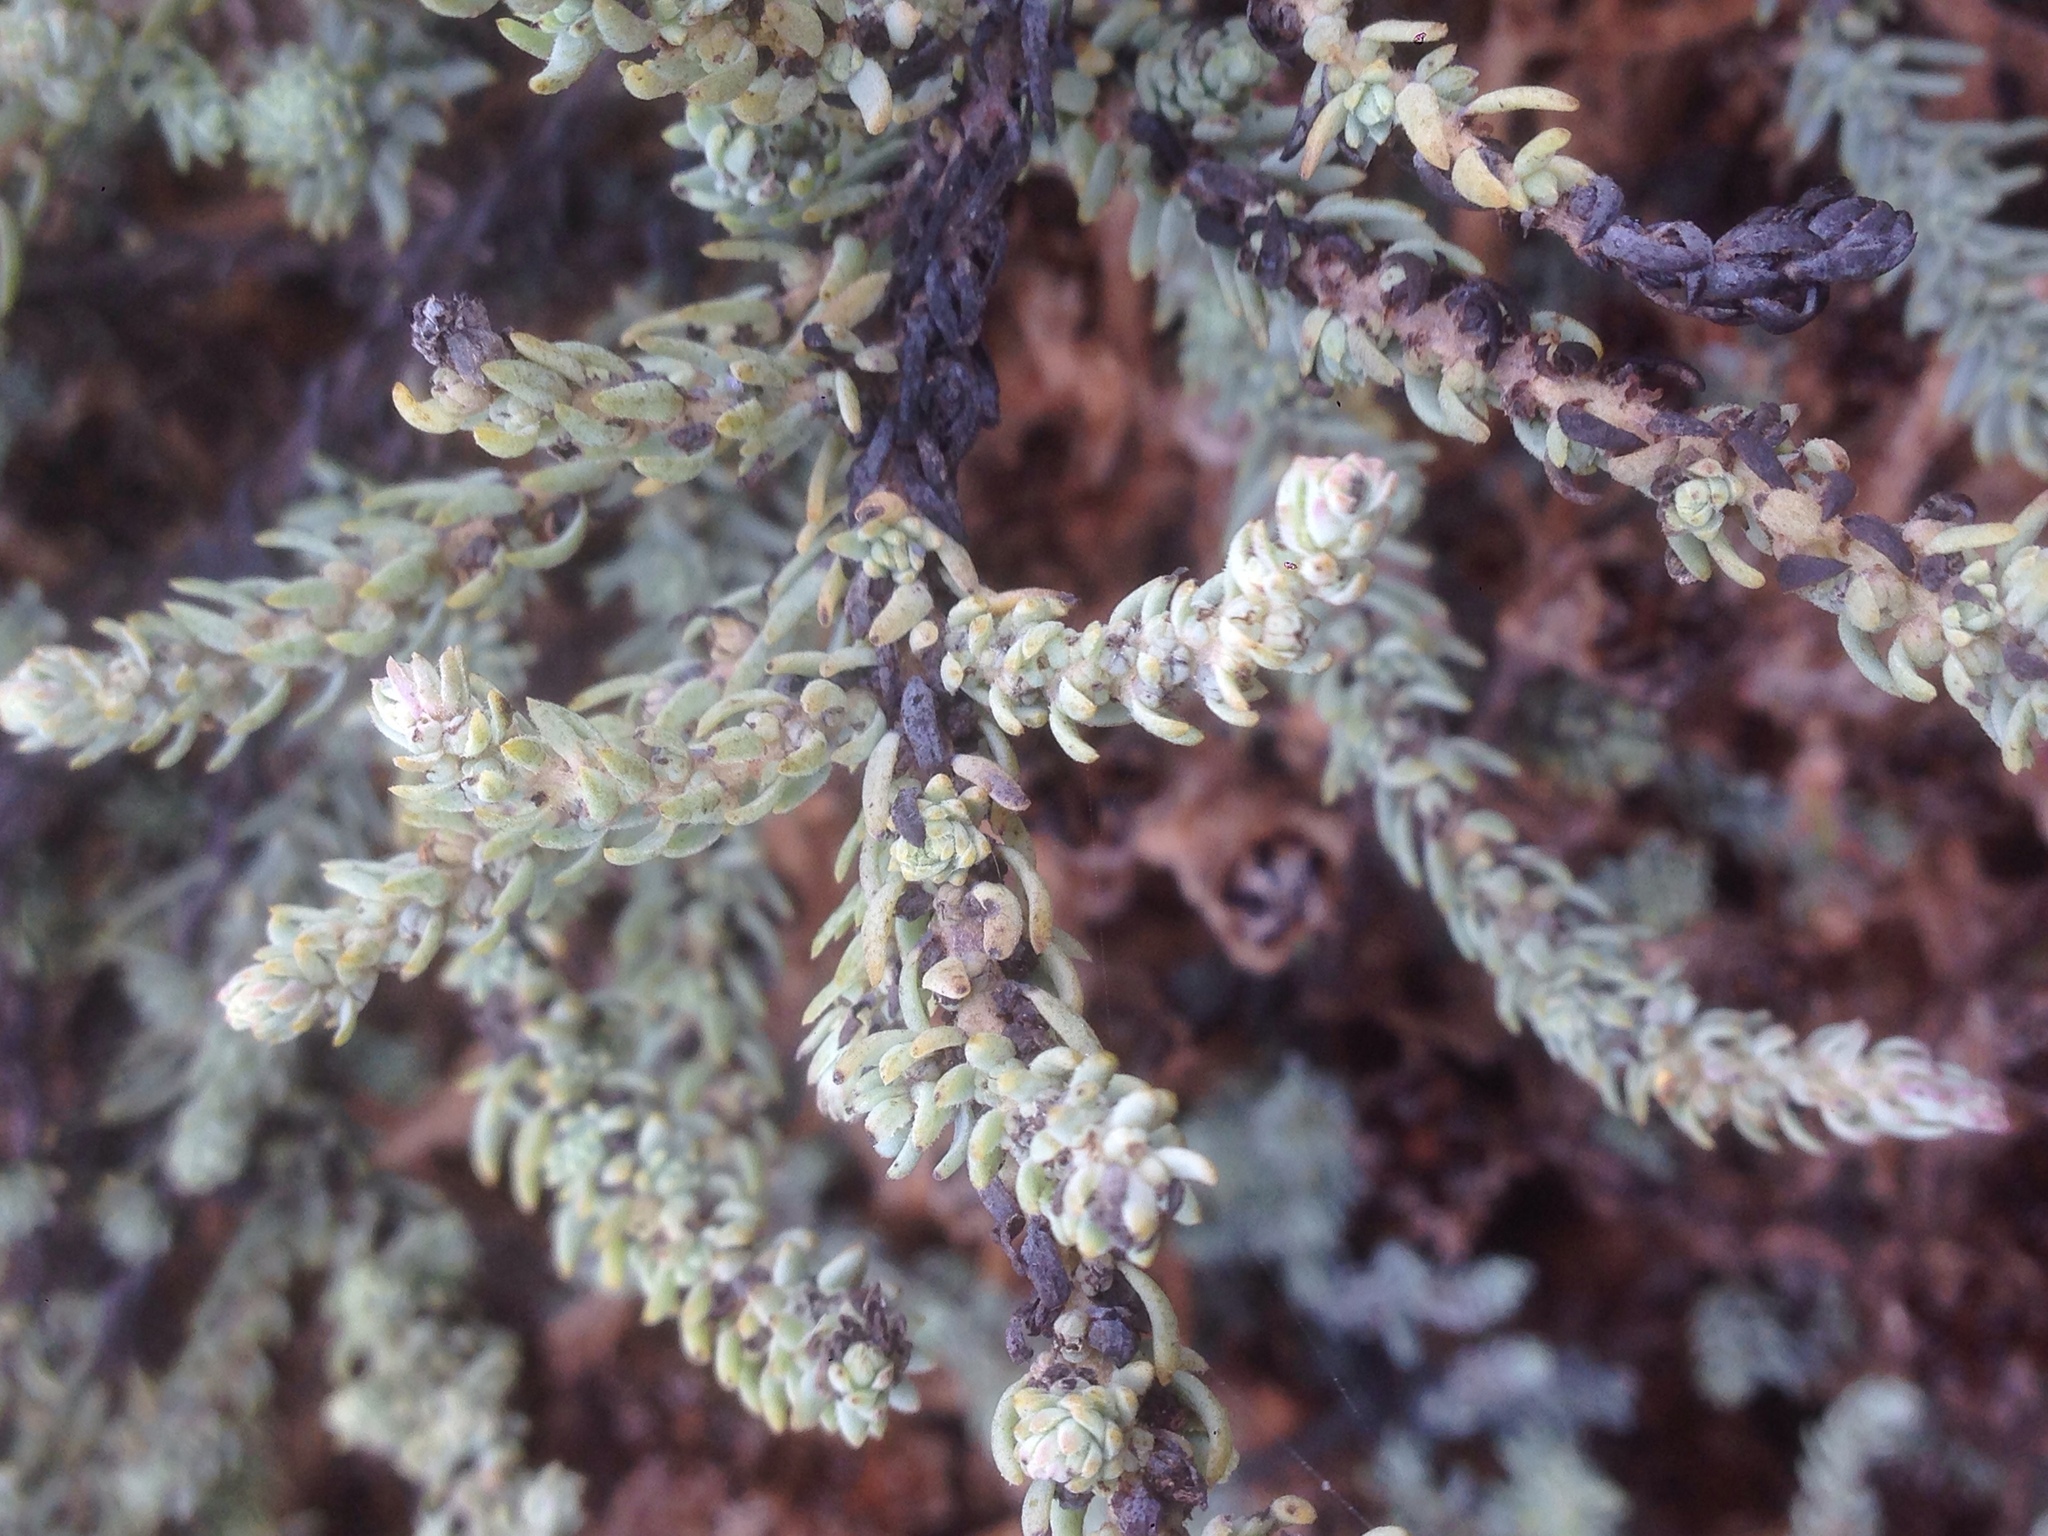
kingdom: Plantae
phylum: Tracheophyta
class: Magnoliopsida
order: Caryophyllales
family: Amaranthaceae
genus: Suaeda
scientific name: Suaeda taxifolia
